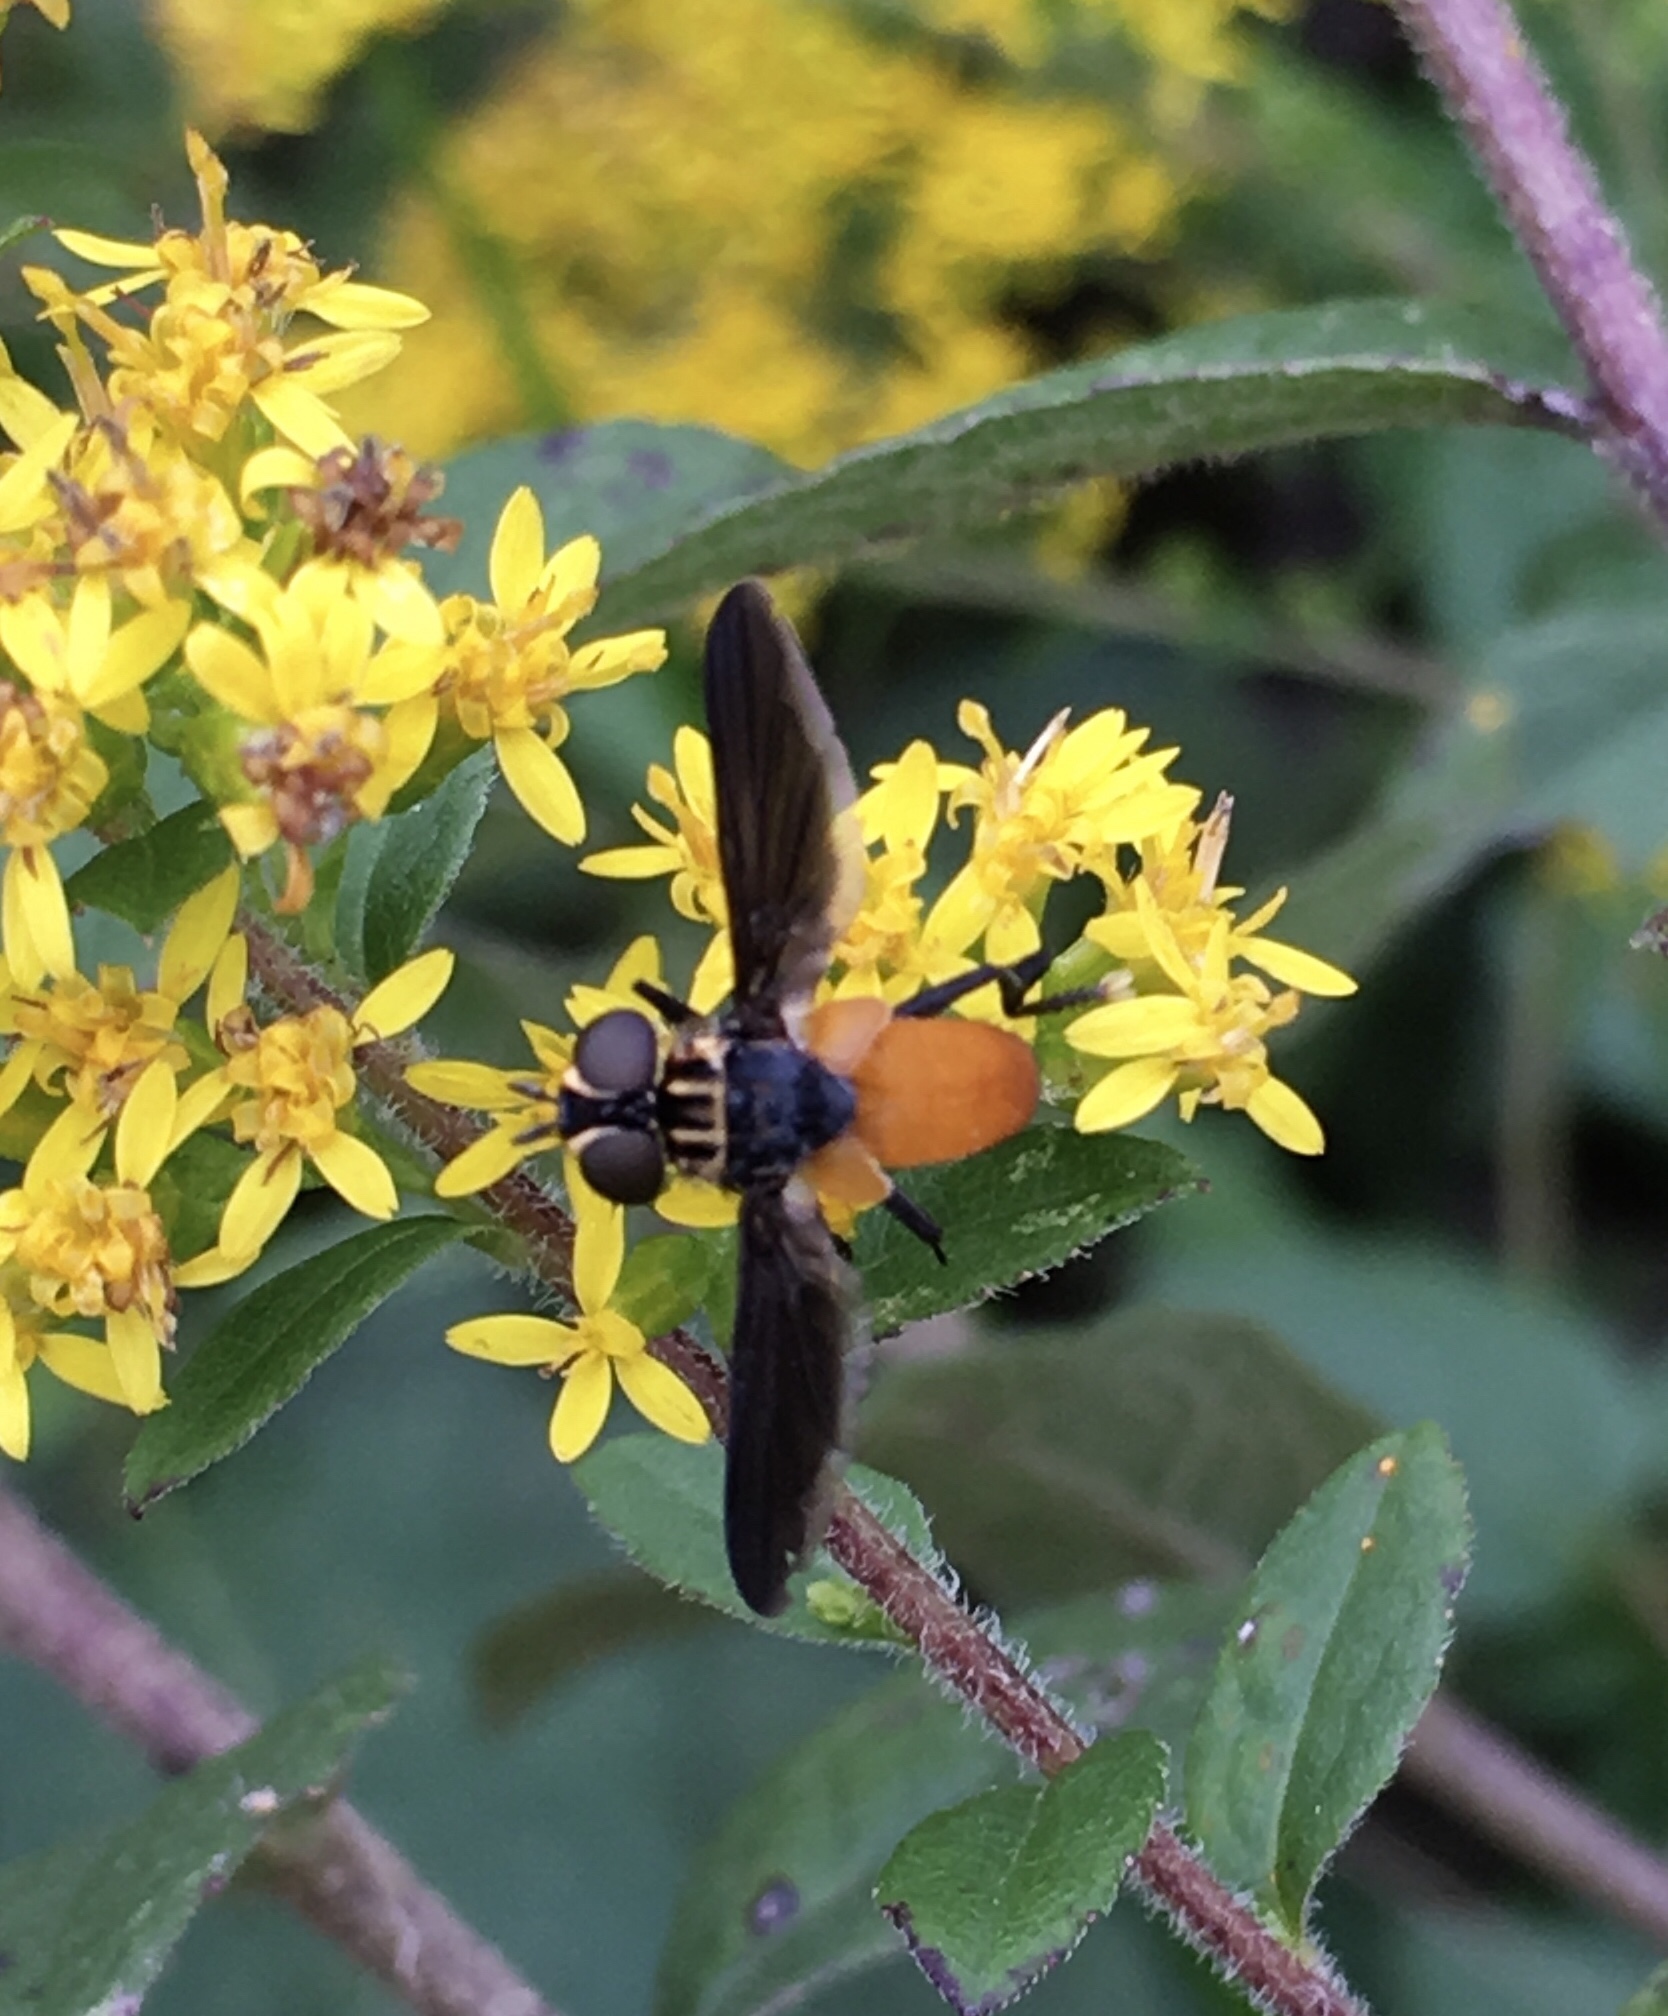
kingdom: Animalia
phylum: Arthropoda
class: Insecta
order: Diptera
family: Tachinidae
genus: Trichopoda
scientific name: Trichopoda pennipes
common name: Tachinid fly
